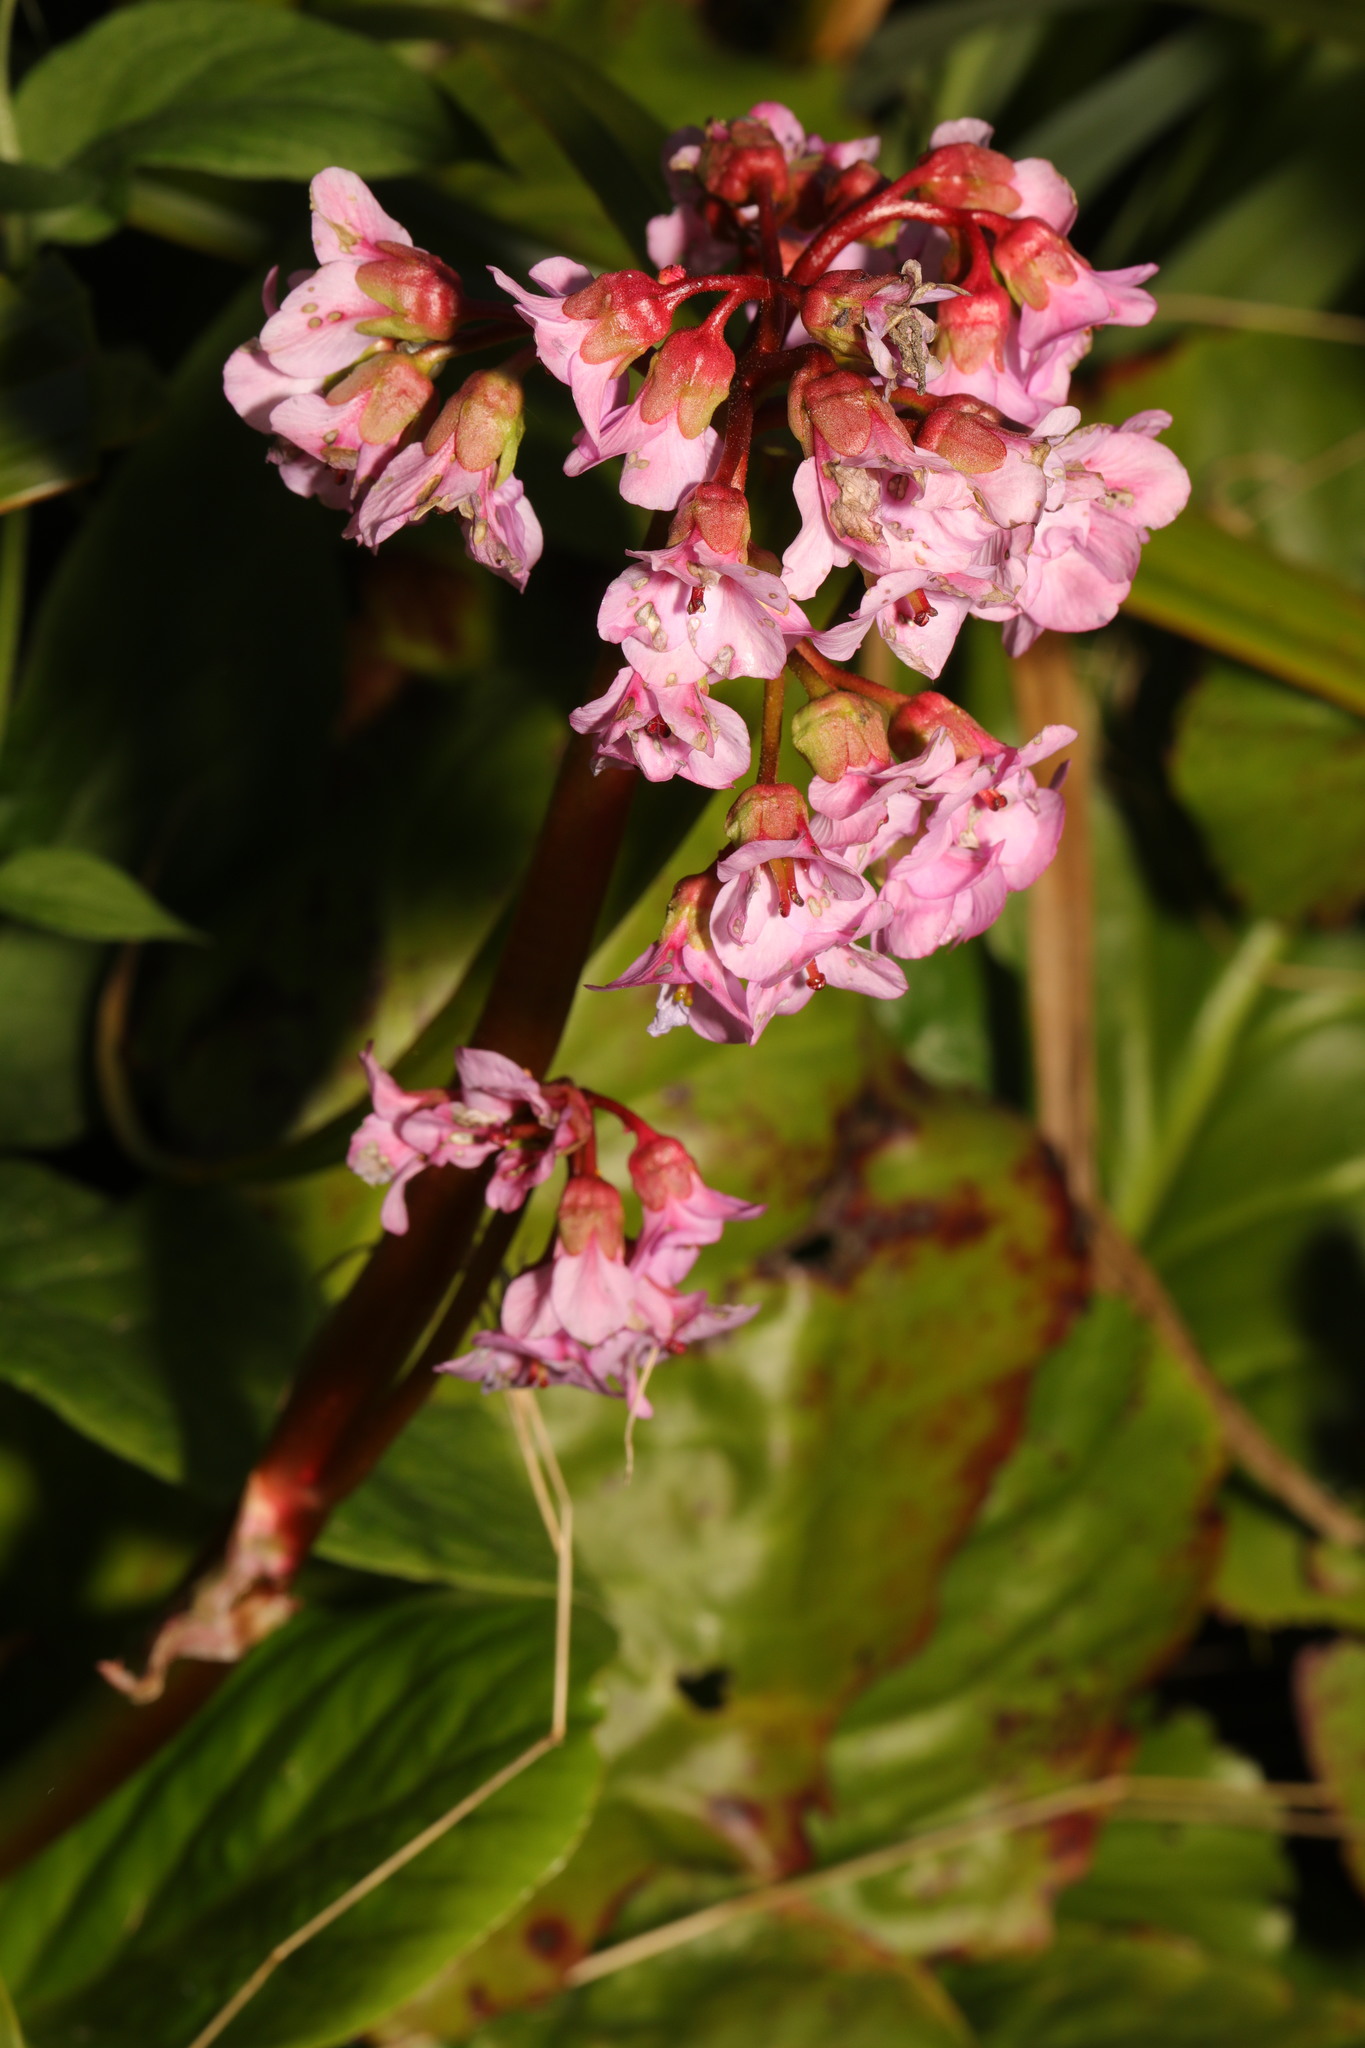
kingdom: Plantae
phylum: Tracheophyta
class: Magnoliopsida
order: Saxifragales
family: Saxifragaceae
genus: Bergenia
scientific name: Bergenia crassifolia
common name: Elephant-ears
